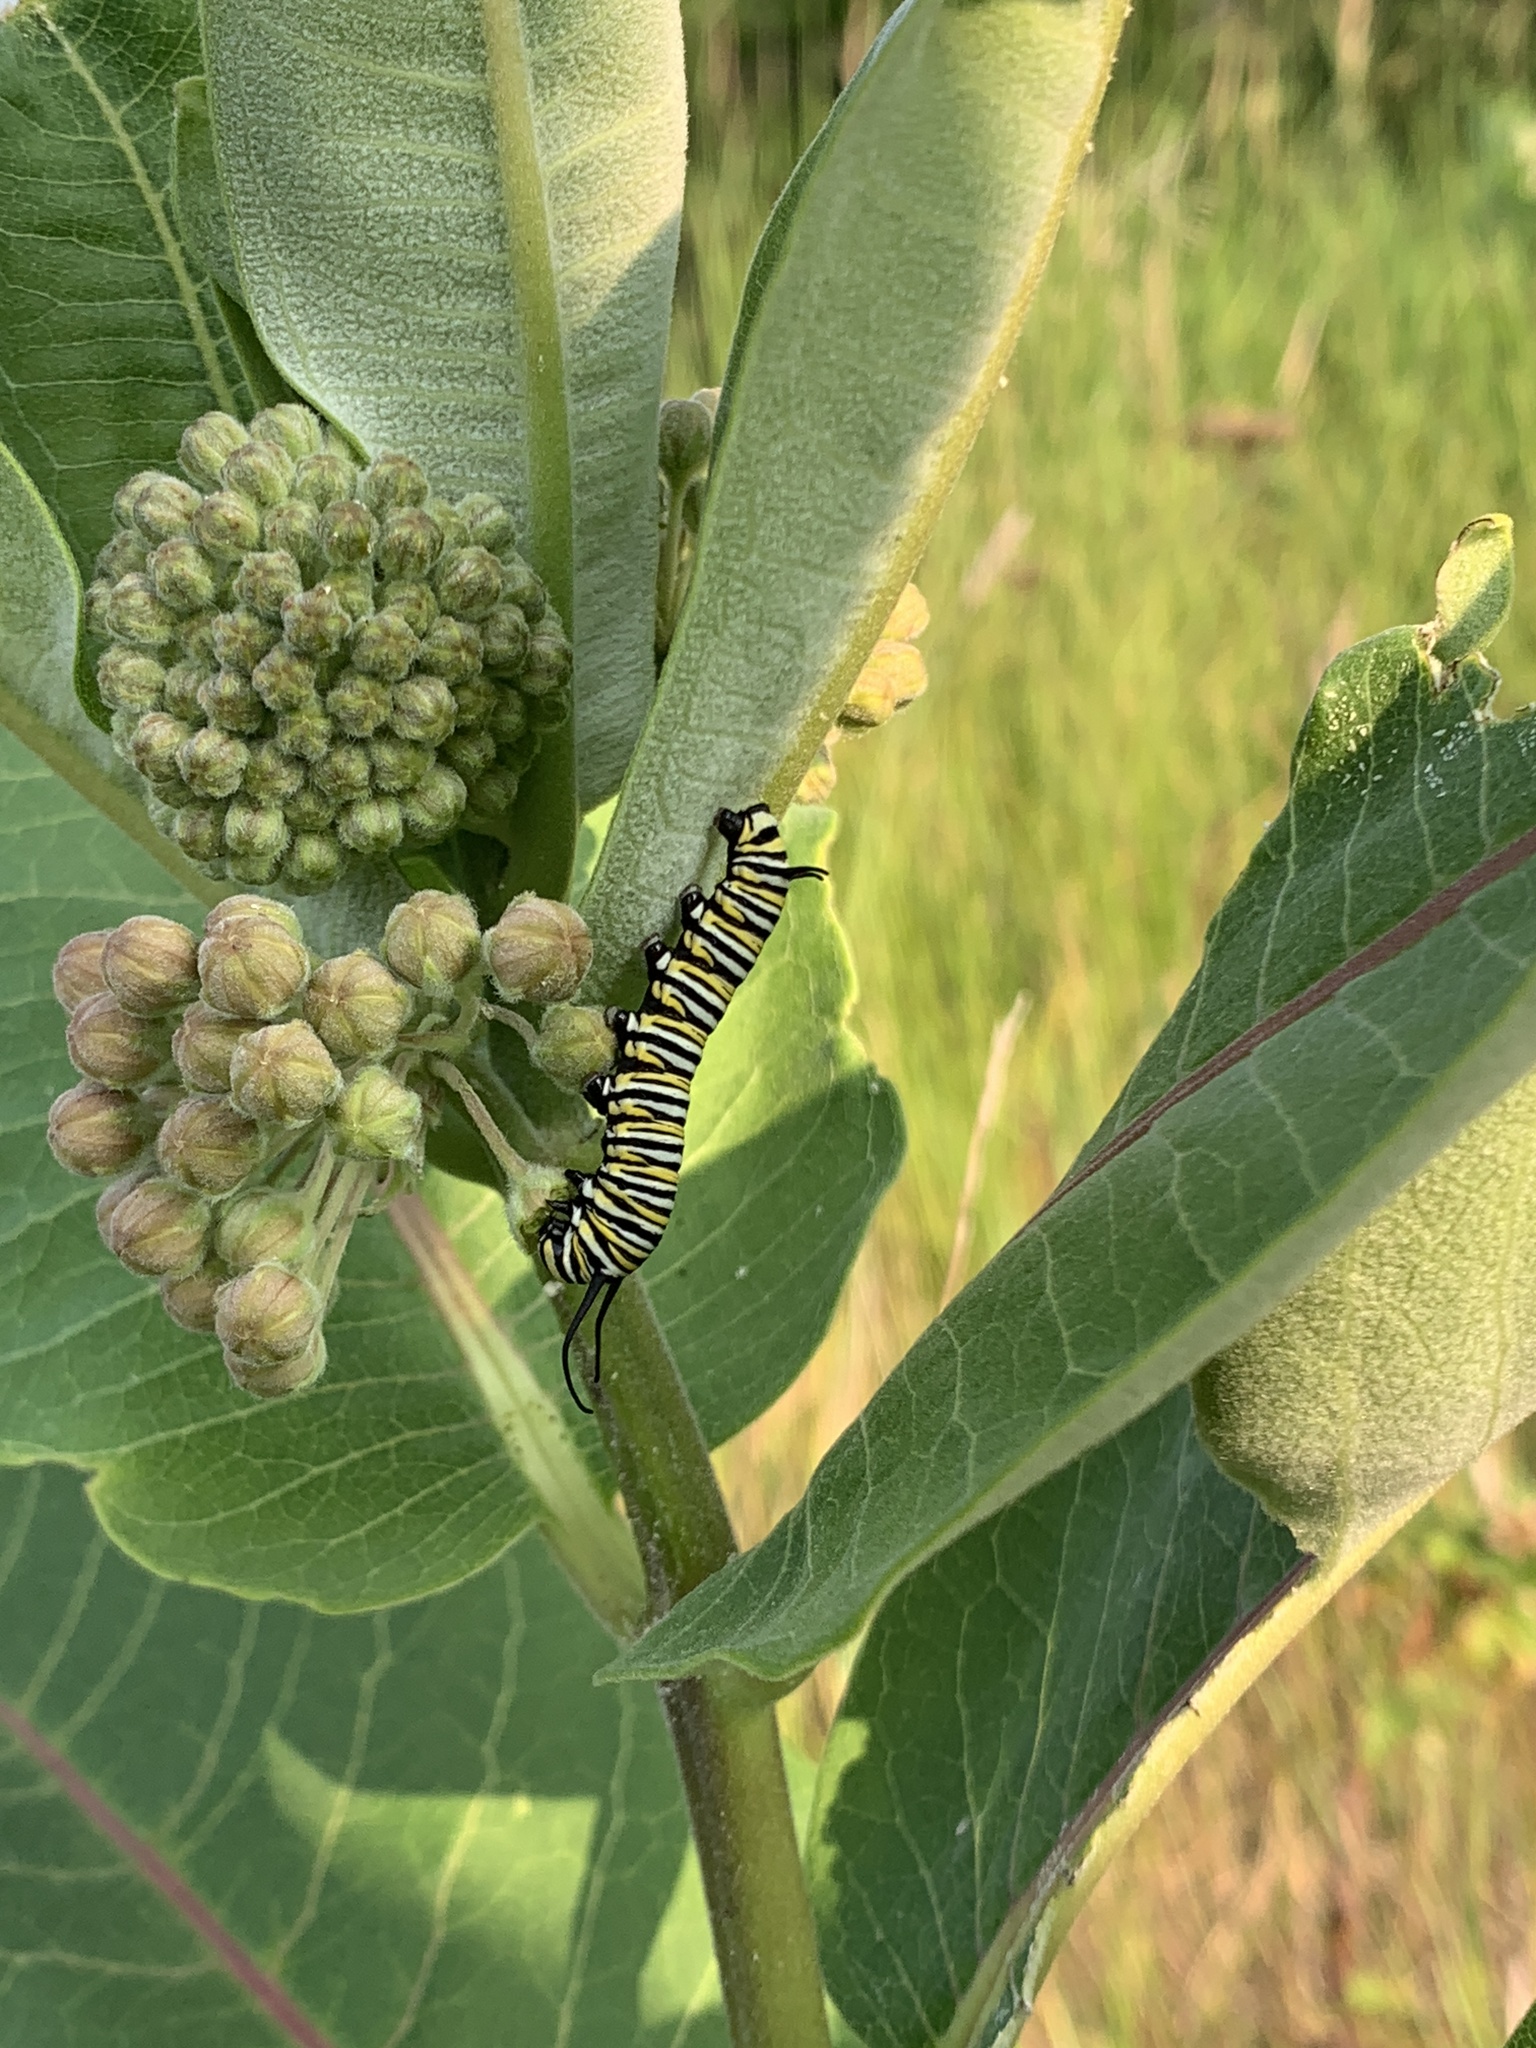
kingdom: Animalia
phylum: Arthropoda
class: Insecta
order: Lepidoptera
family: Nymphalidae
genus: Danaus
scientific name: Danaus plexippus
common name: Monarch
